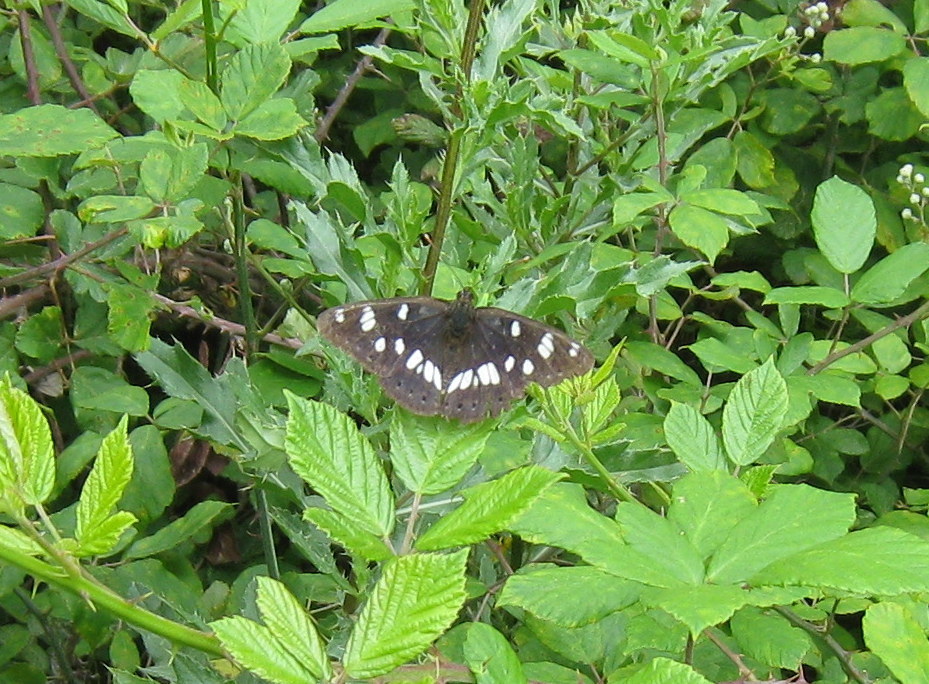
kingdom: Animalia
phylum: Arthropoda
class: Insecta
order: Lepidoptera
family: Nymphalidae
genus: Limenitis
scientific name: Limenitis reducta
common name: Southern white admiral
